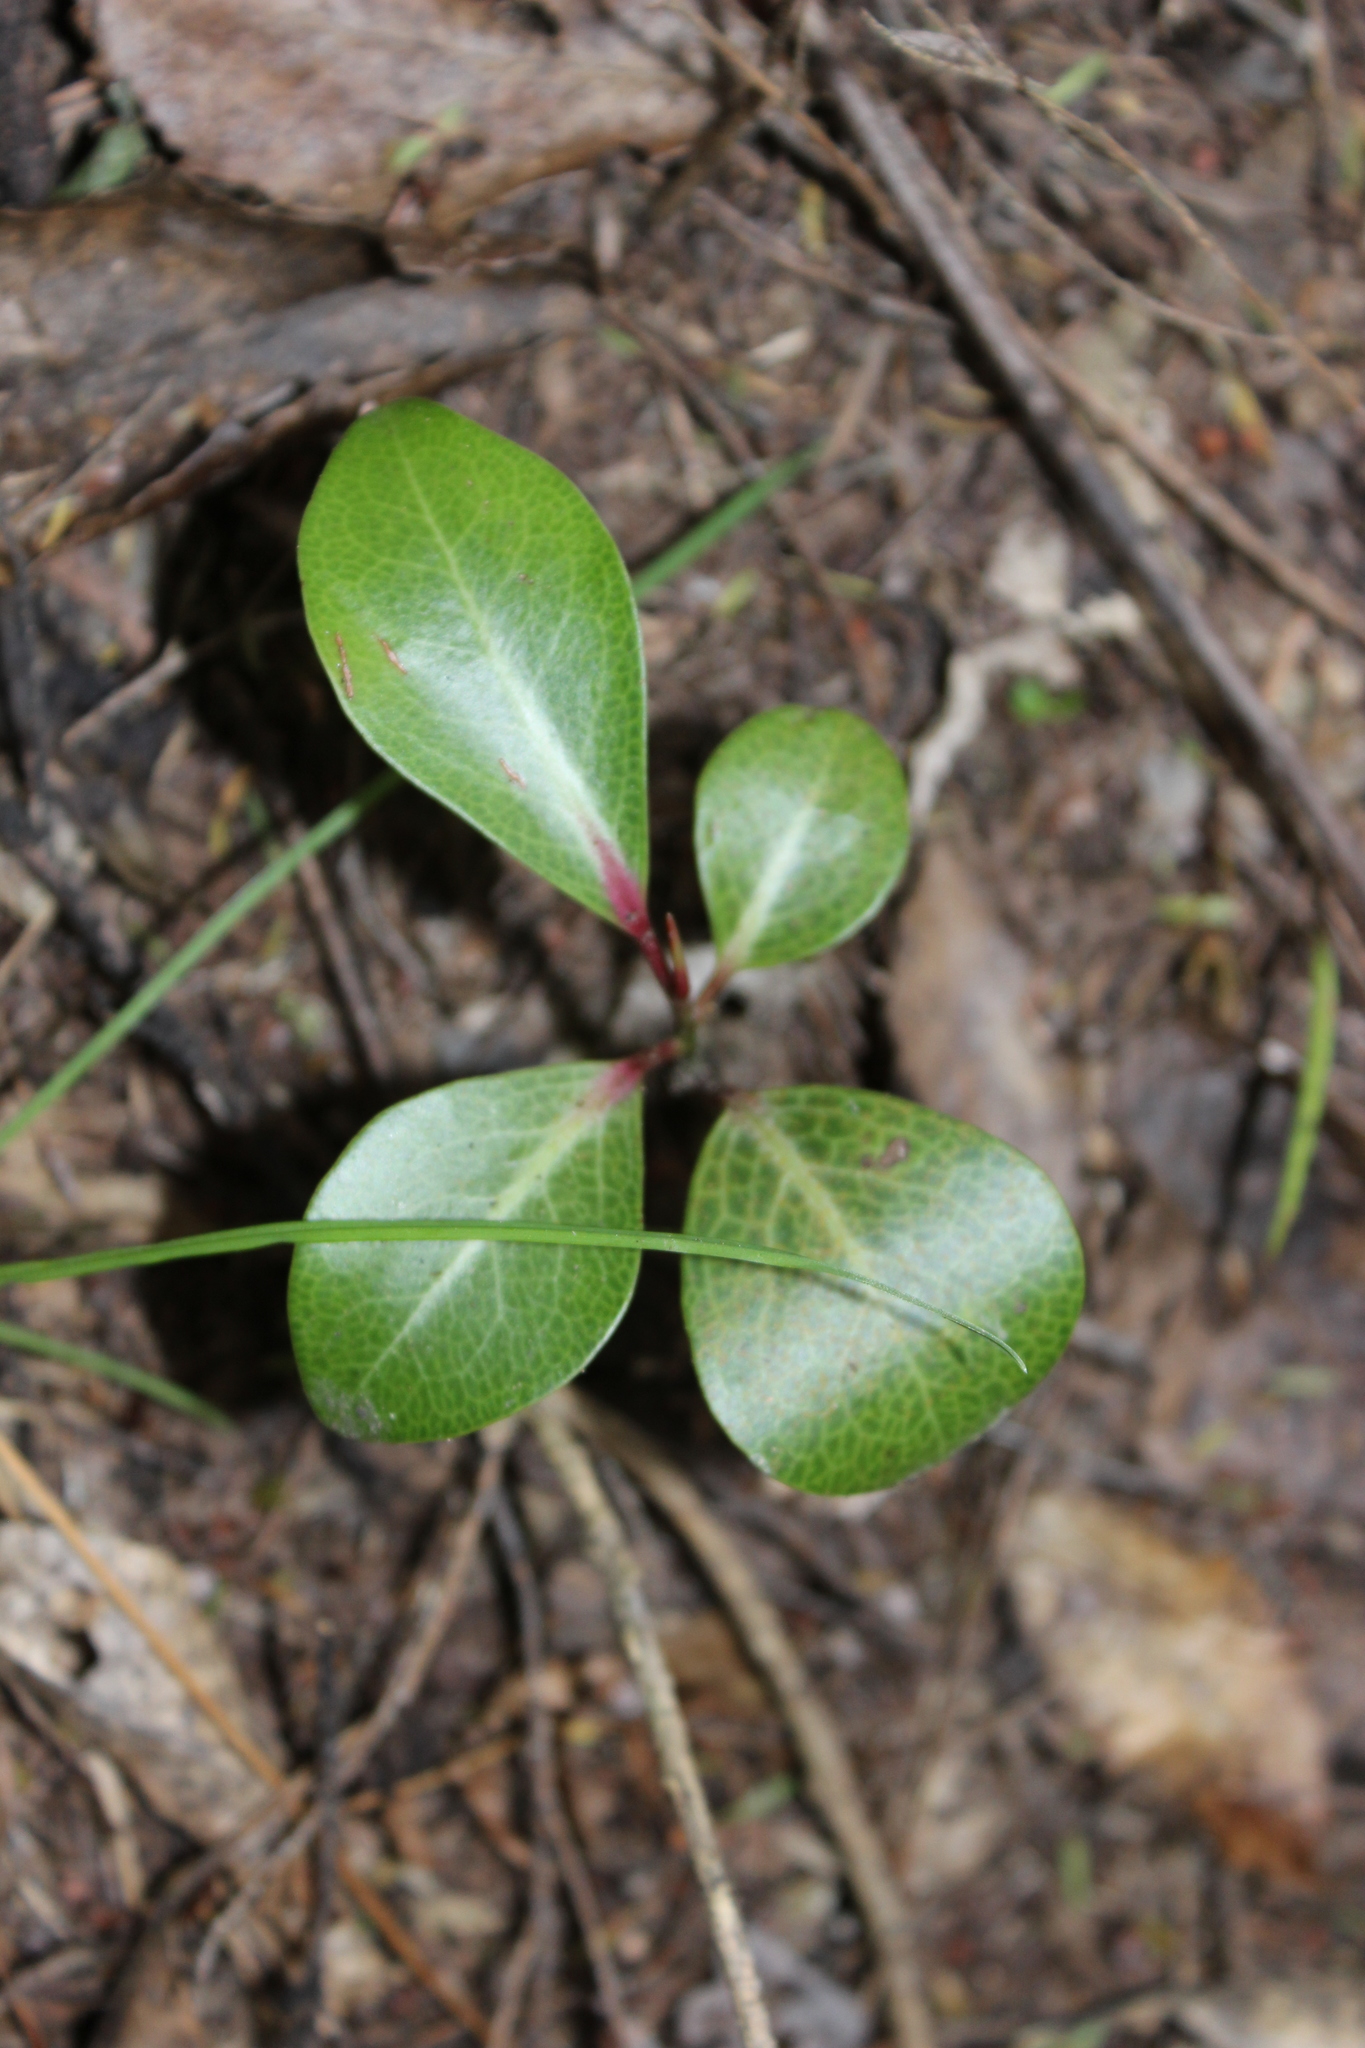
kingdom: Plantae
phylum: Tracheophyta
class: Magnoliopsida
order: Canellales
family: Winteraceae
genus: Pseudowintera
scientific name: Pseudowintera axillaris
